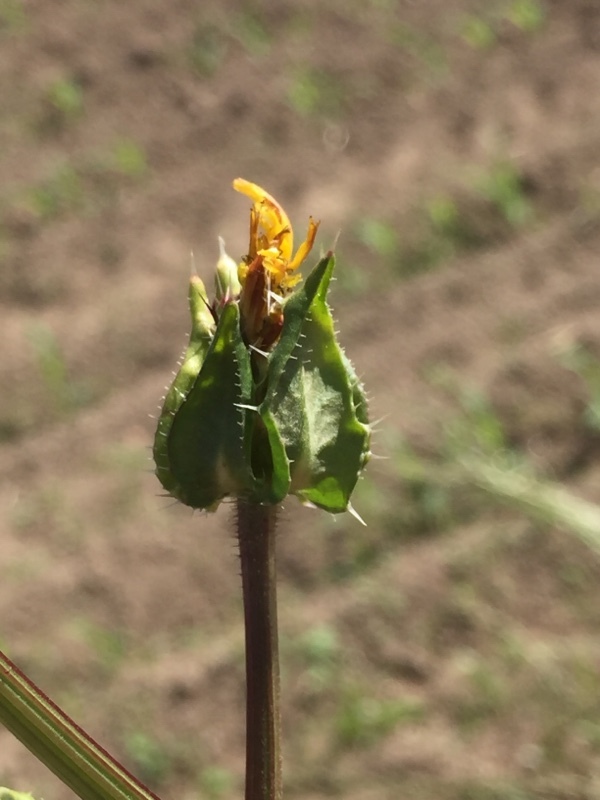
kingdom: Plantae
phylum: Tracheophyta
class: Magnoliopsida
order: Asterales
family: Asteraceae
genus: Helminthotheca
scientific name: Helminthotheca echioides
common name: Ox-tongue
